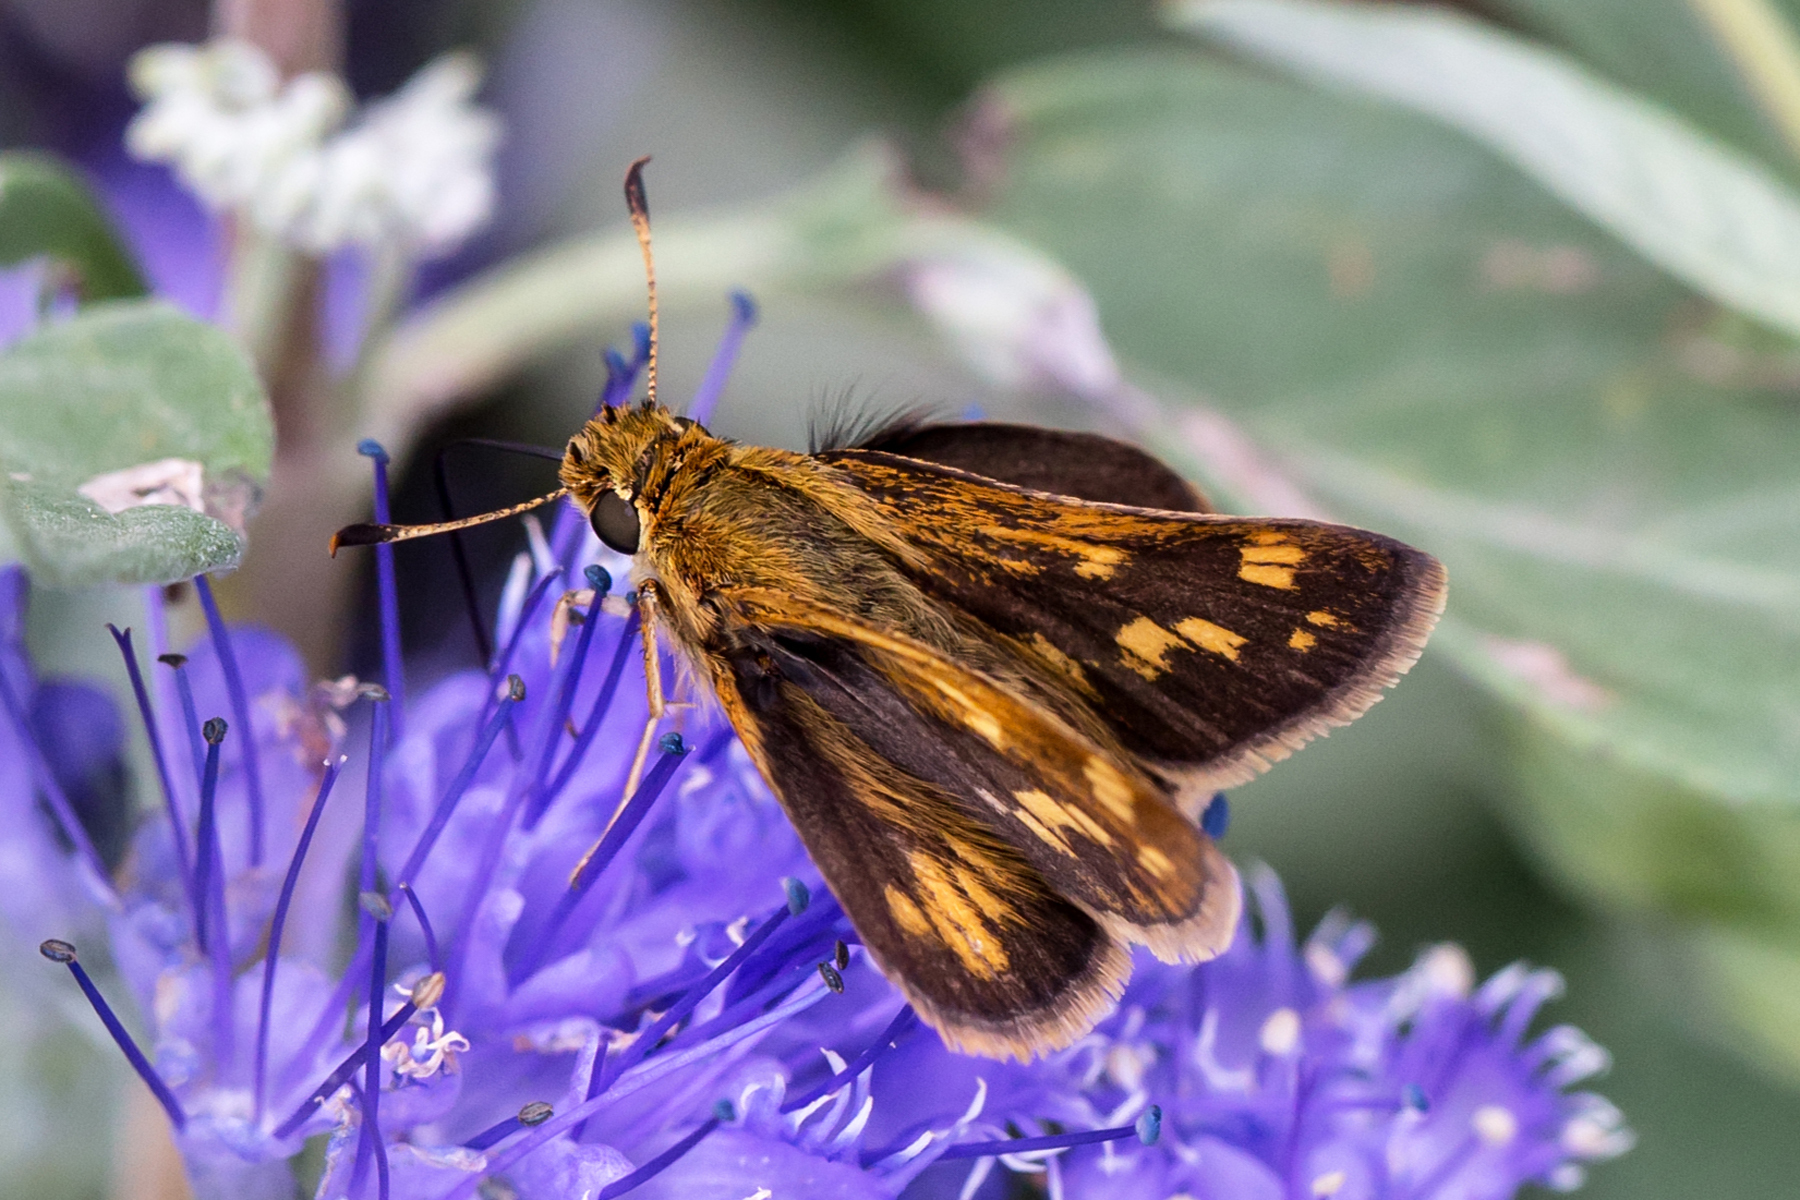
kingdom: Animalia
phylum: Arthropoda
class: Insecta
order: Lepidoptera
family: Hesperiidae
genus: Polites
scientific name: Polites coras
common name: Peck's skipper
